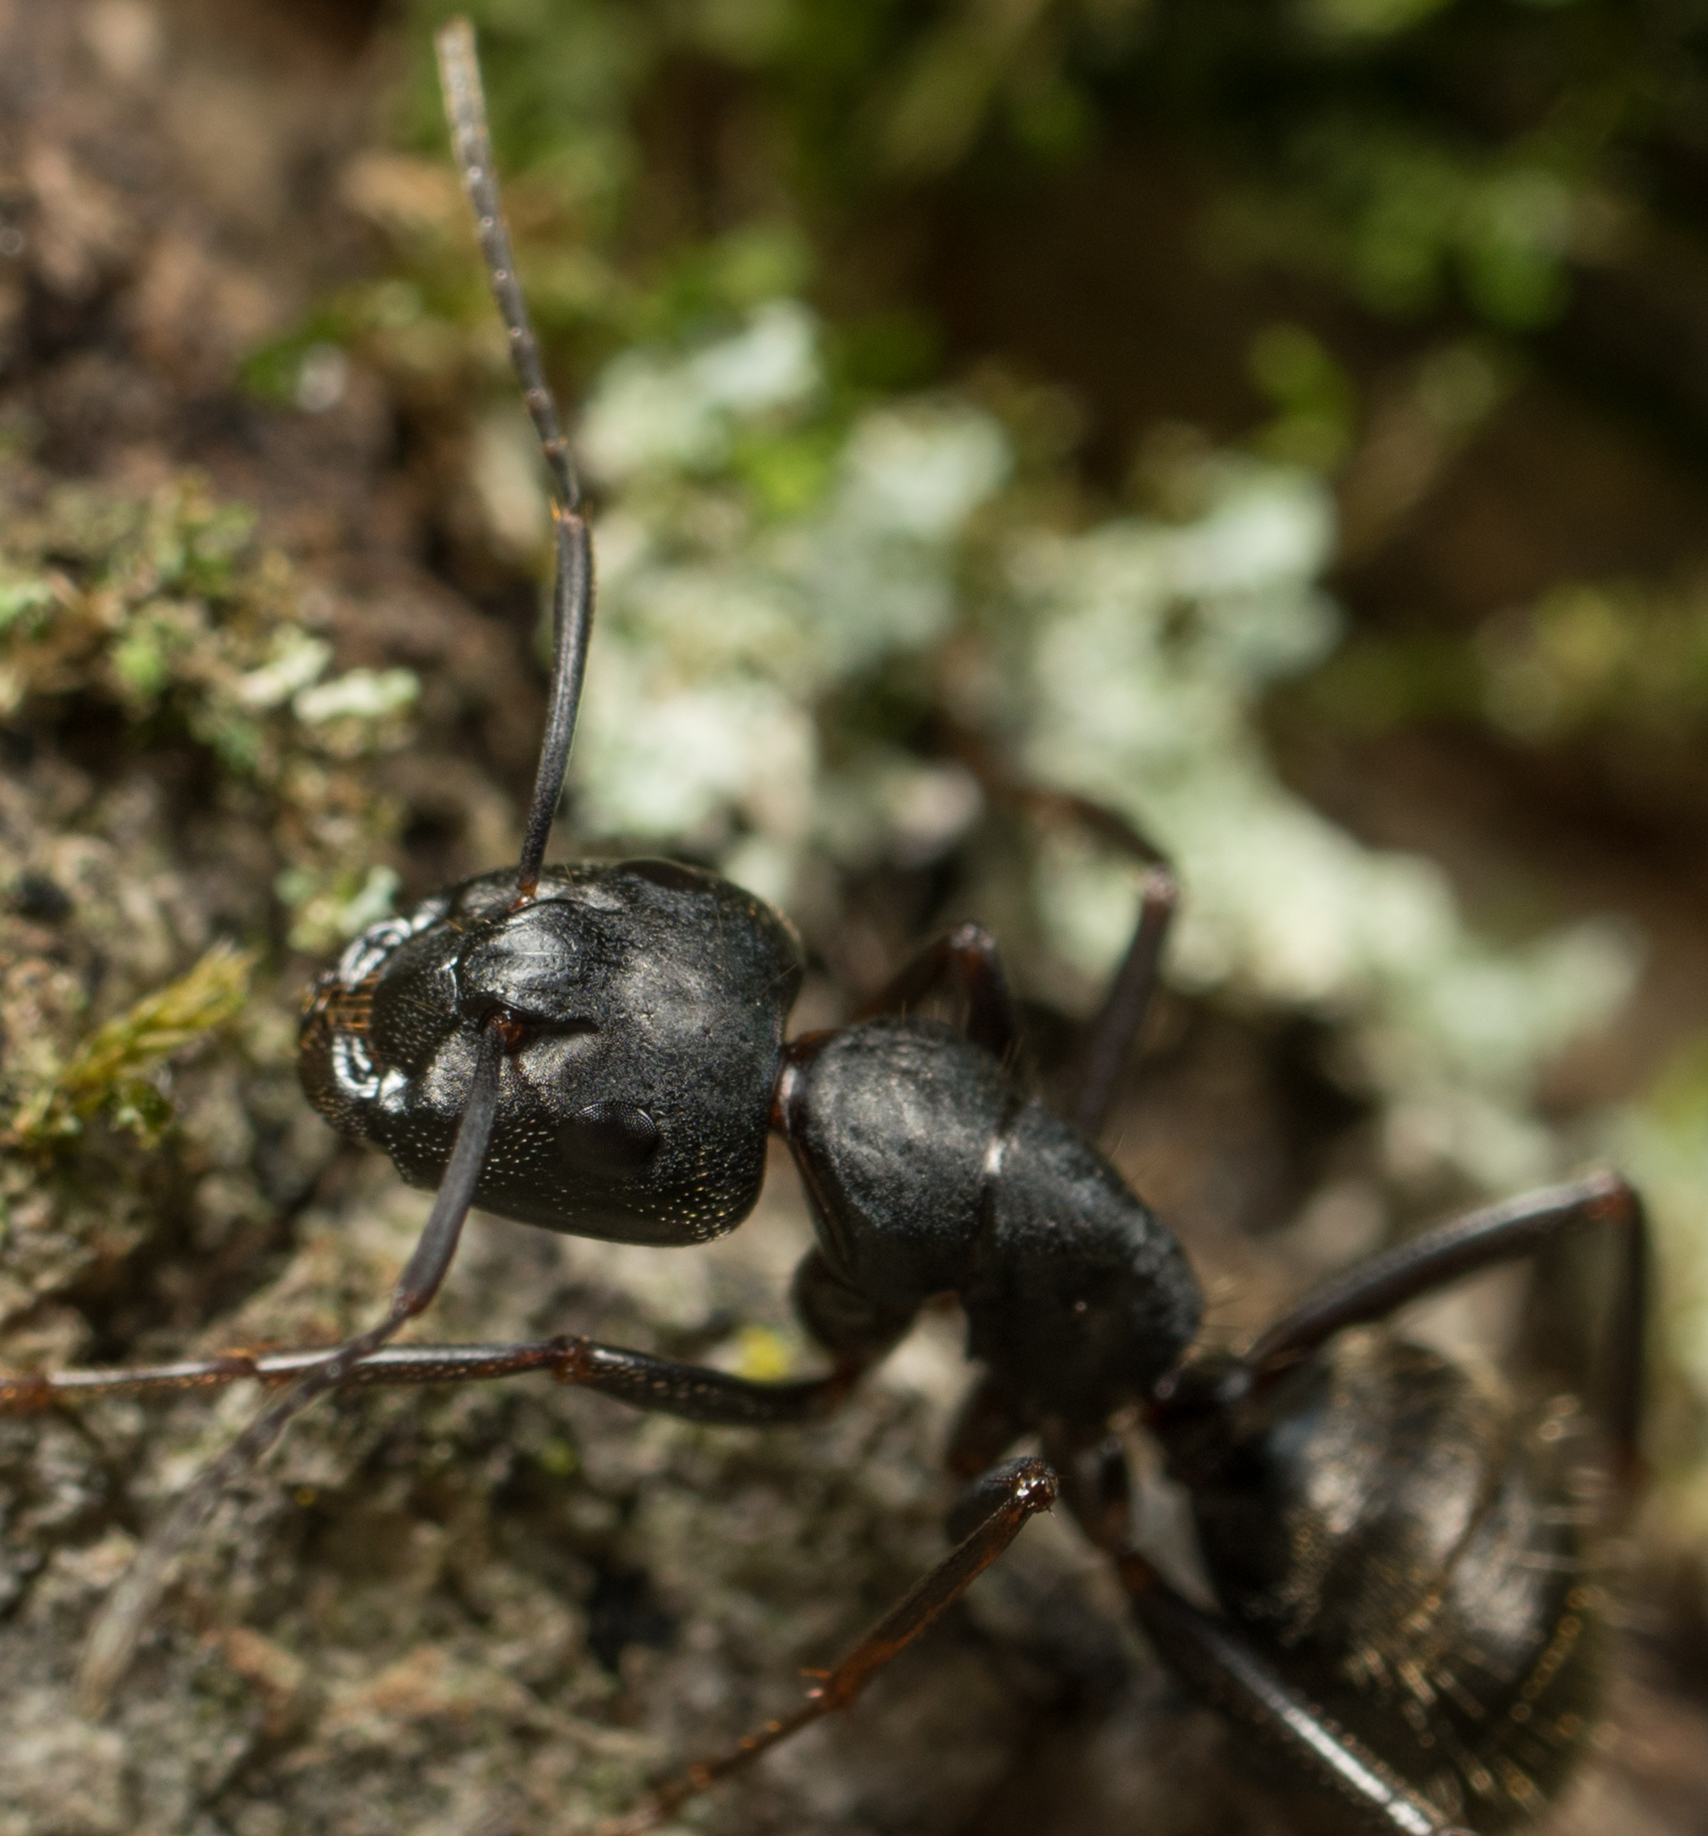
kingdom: Animalia
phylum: Arthropoda
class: Insecta
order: Hymenoptera
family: Formicidae
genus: Camponotus
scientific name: Camponotus pennsylvanicus
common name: Black carpenter ant
